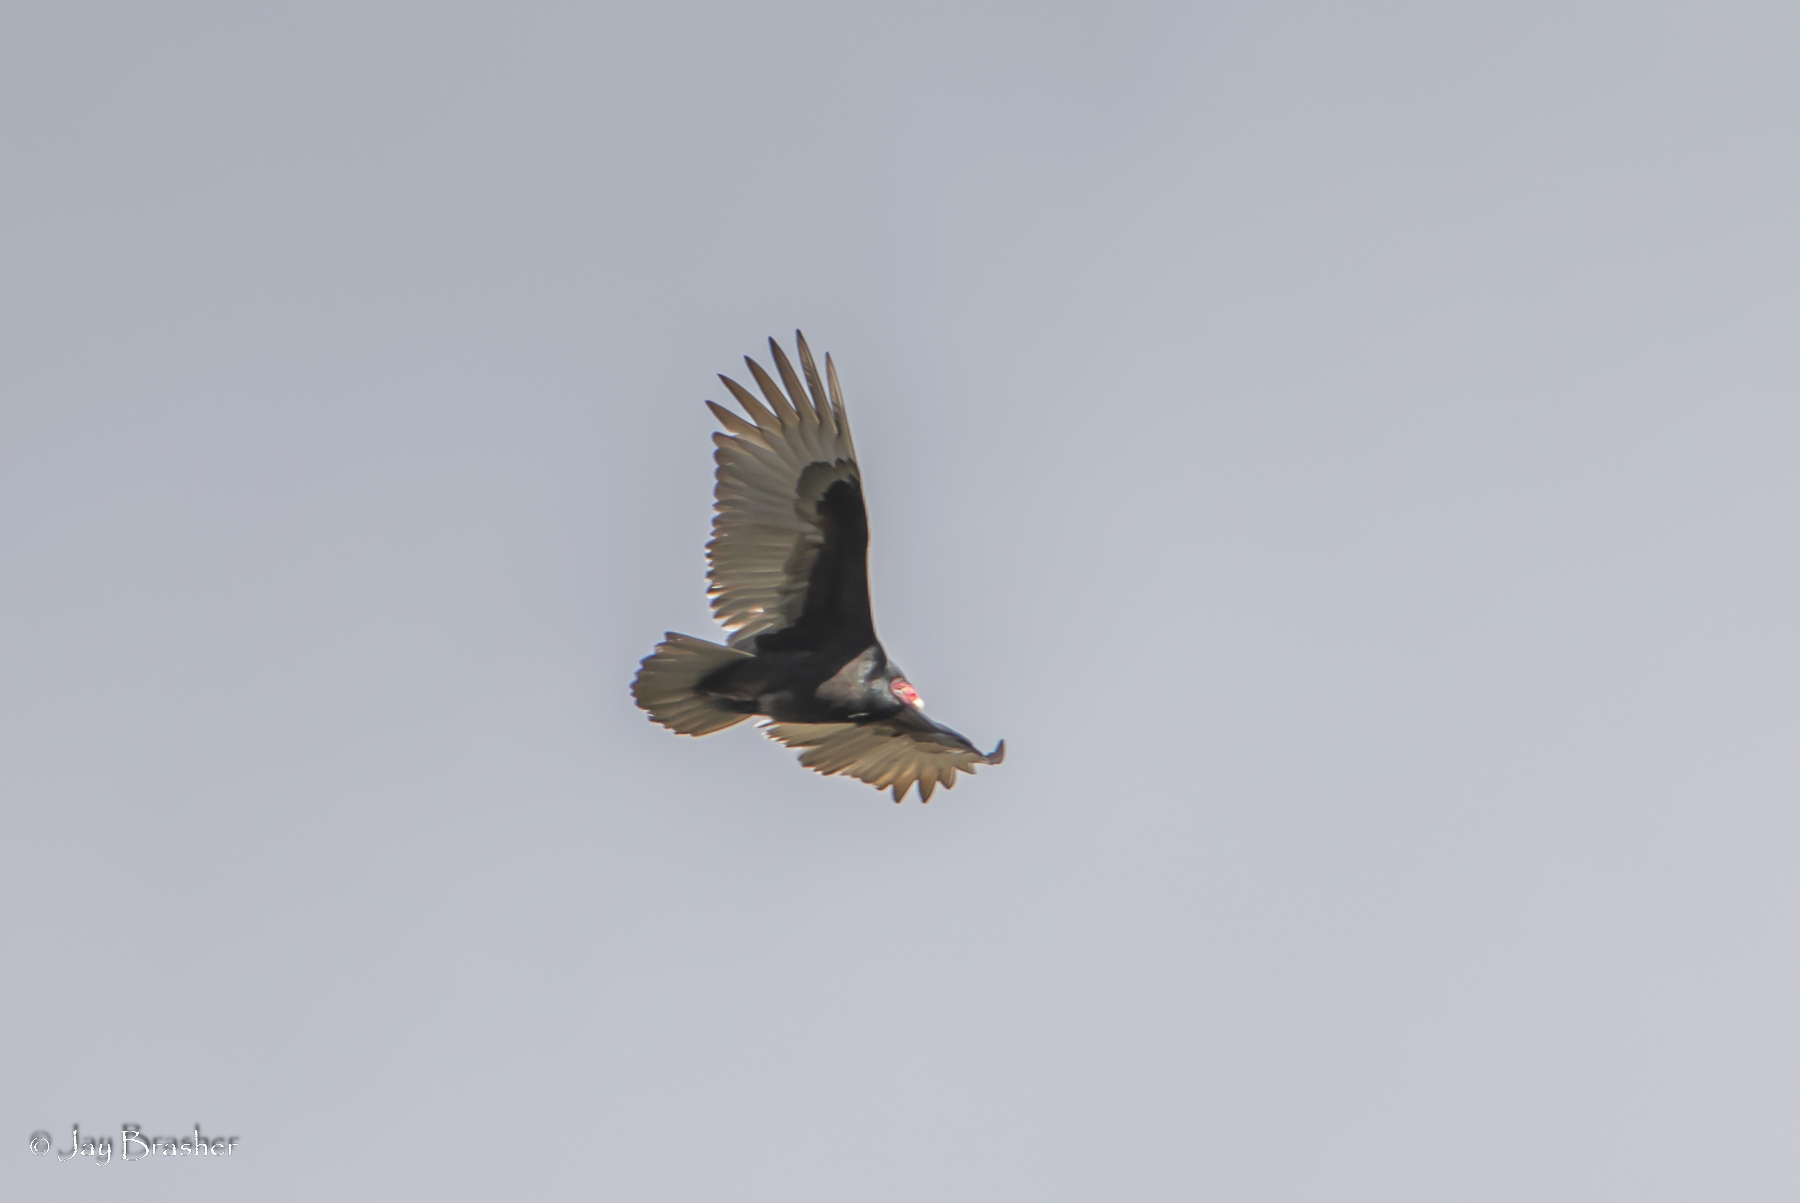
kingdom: Animalia
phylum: Chordata
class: Aves
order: Accipitriformes
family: Cathartidae
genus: Cathartes
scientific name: Cathartes aura
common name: Turkey vulture
